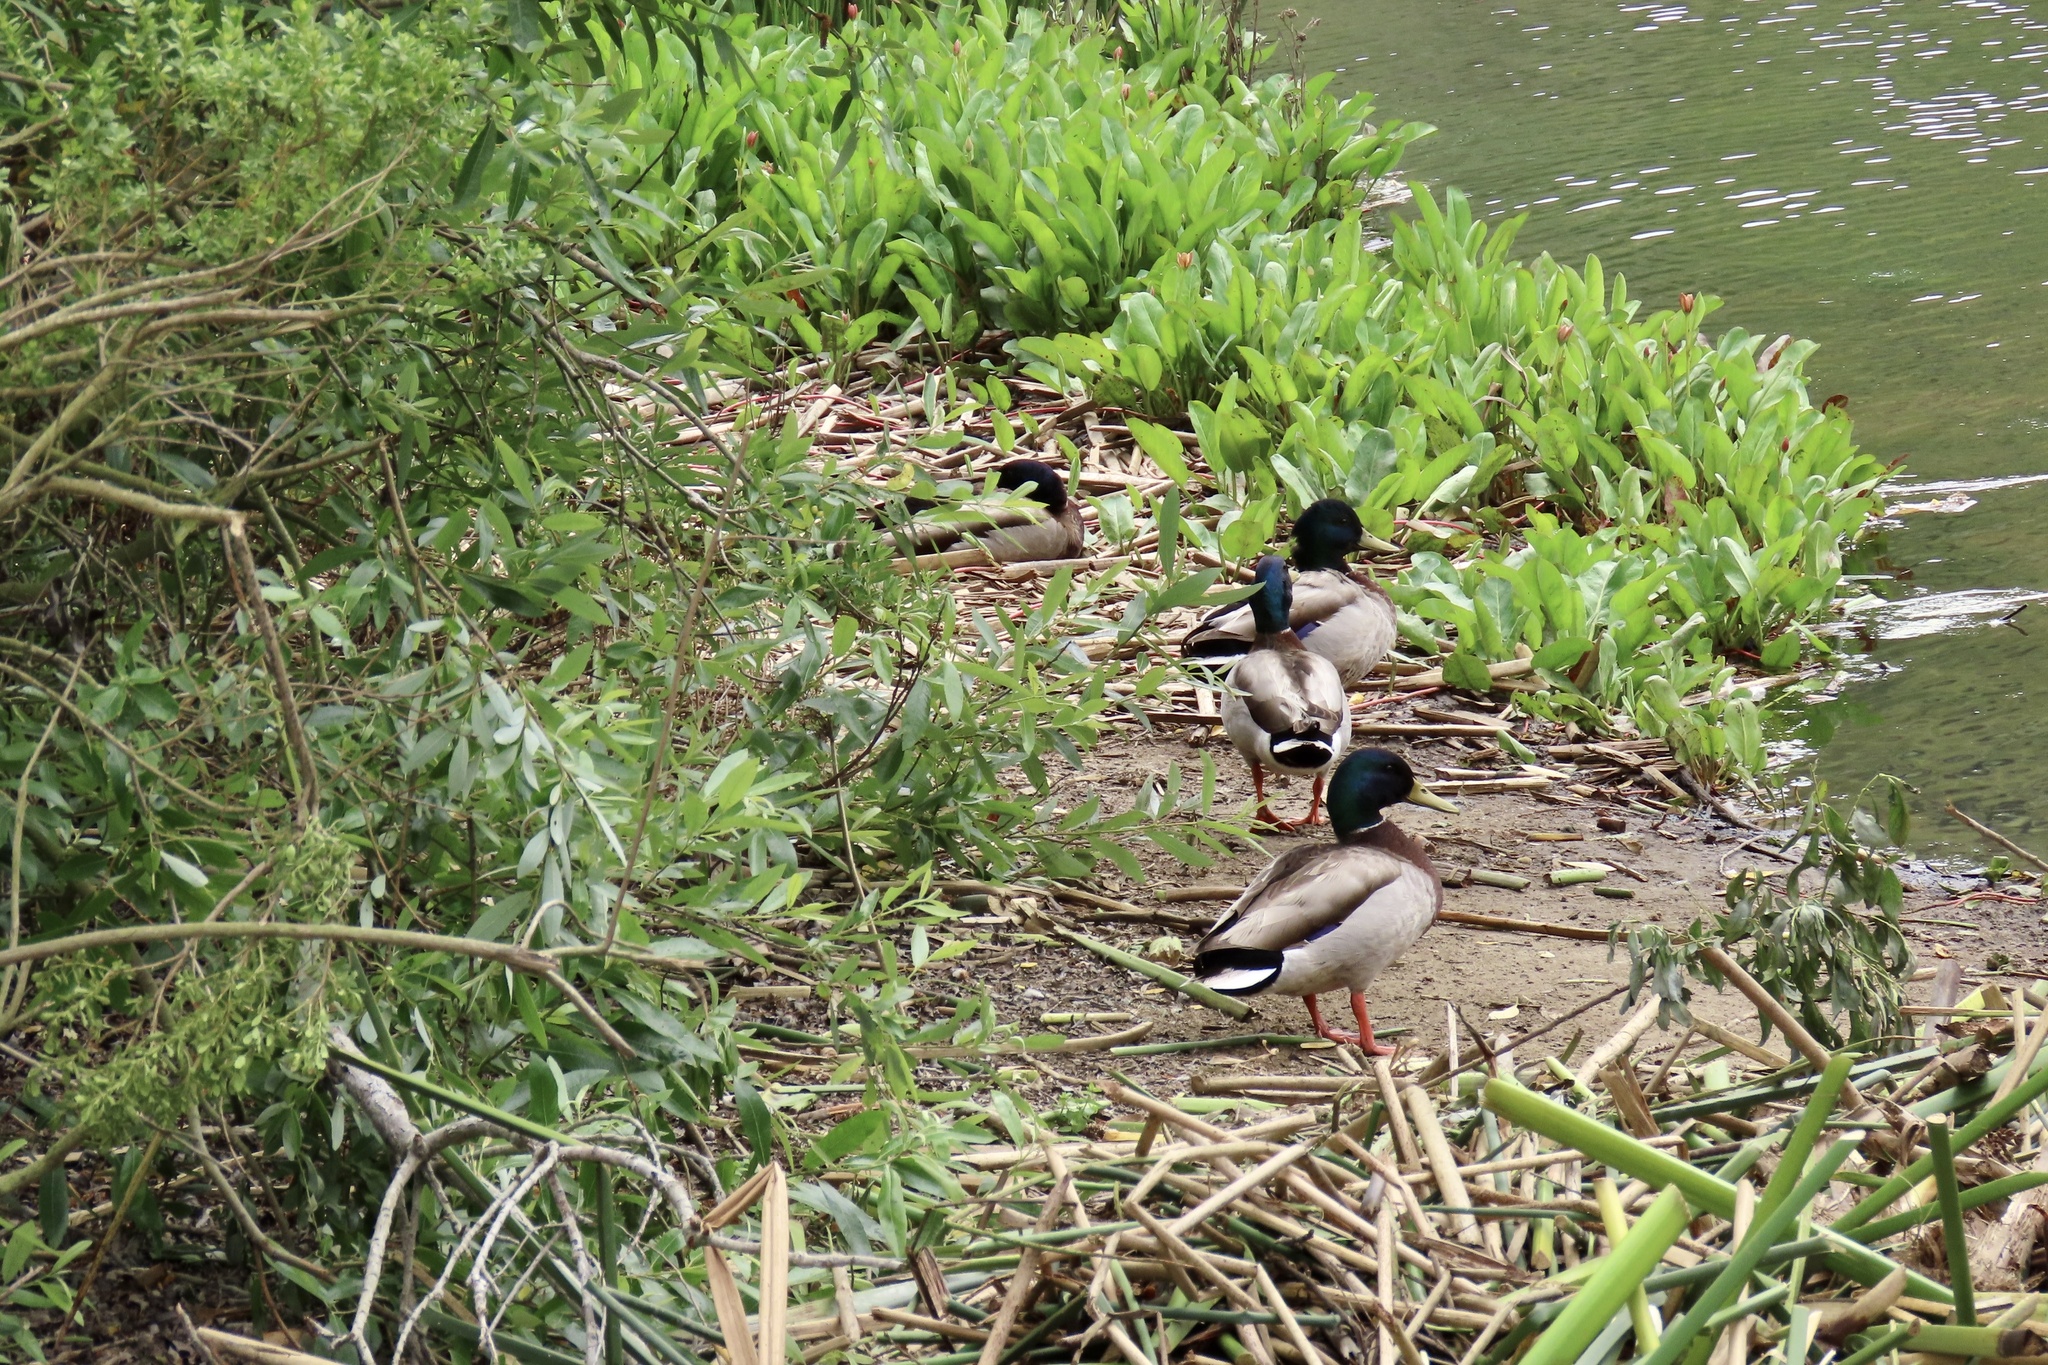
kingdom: Animalia
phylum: Chordata
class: Aves
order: Anseriformes
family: Anatidae
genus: Anas
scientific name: Anas platyrhynchos
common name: Mallard
